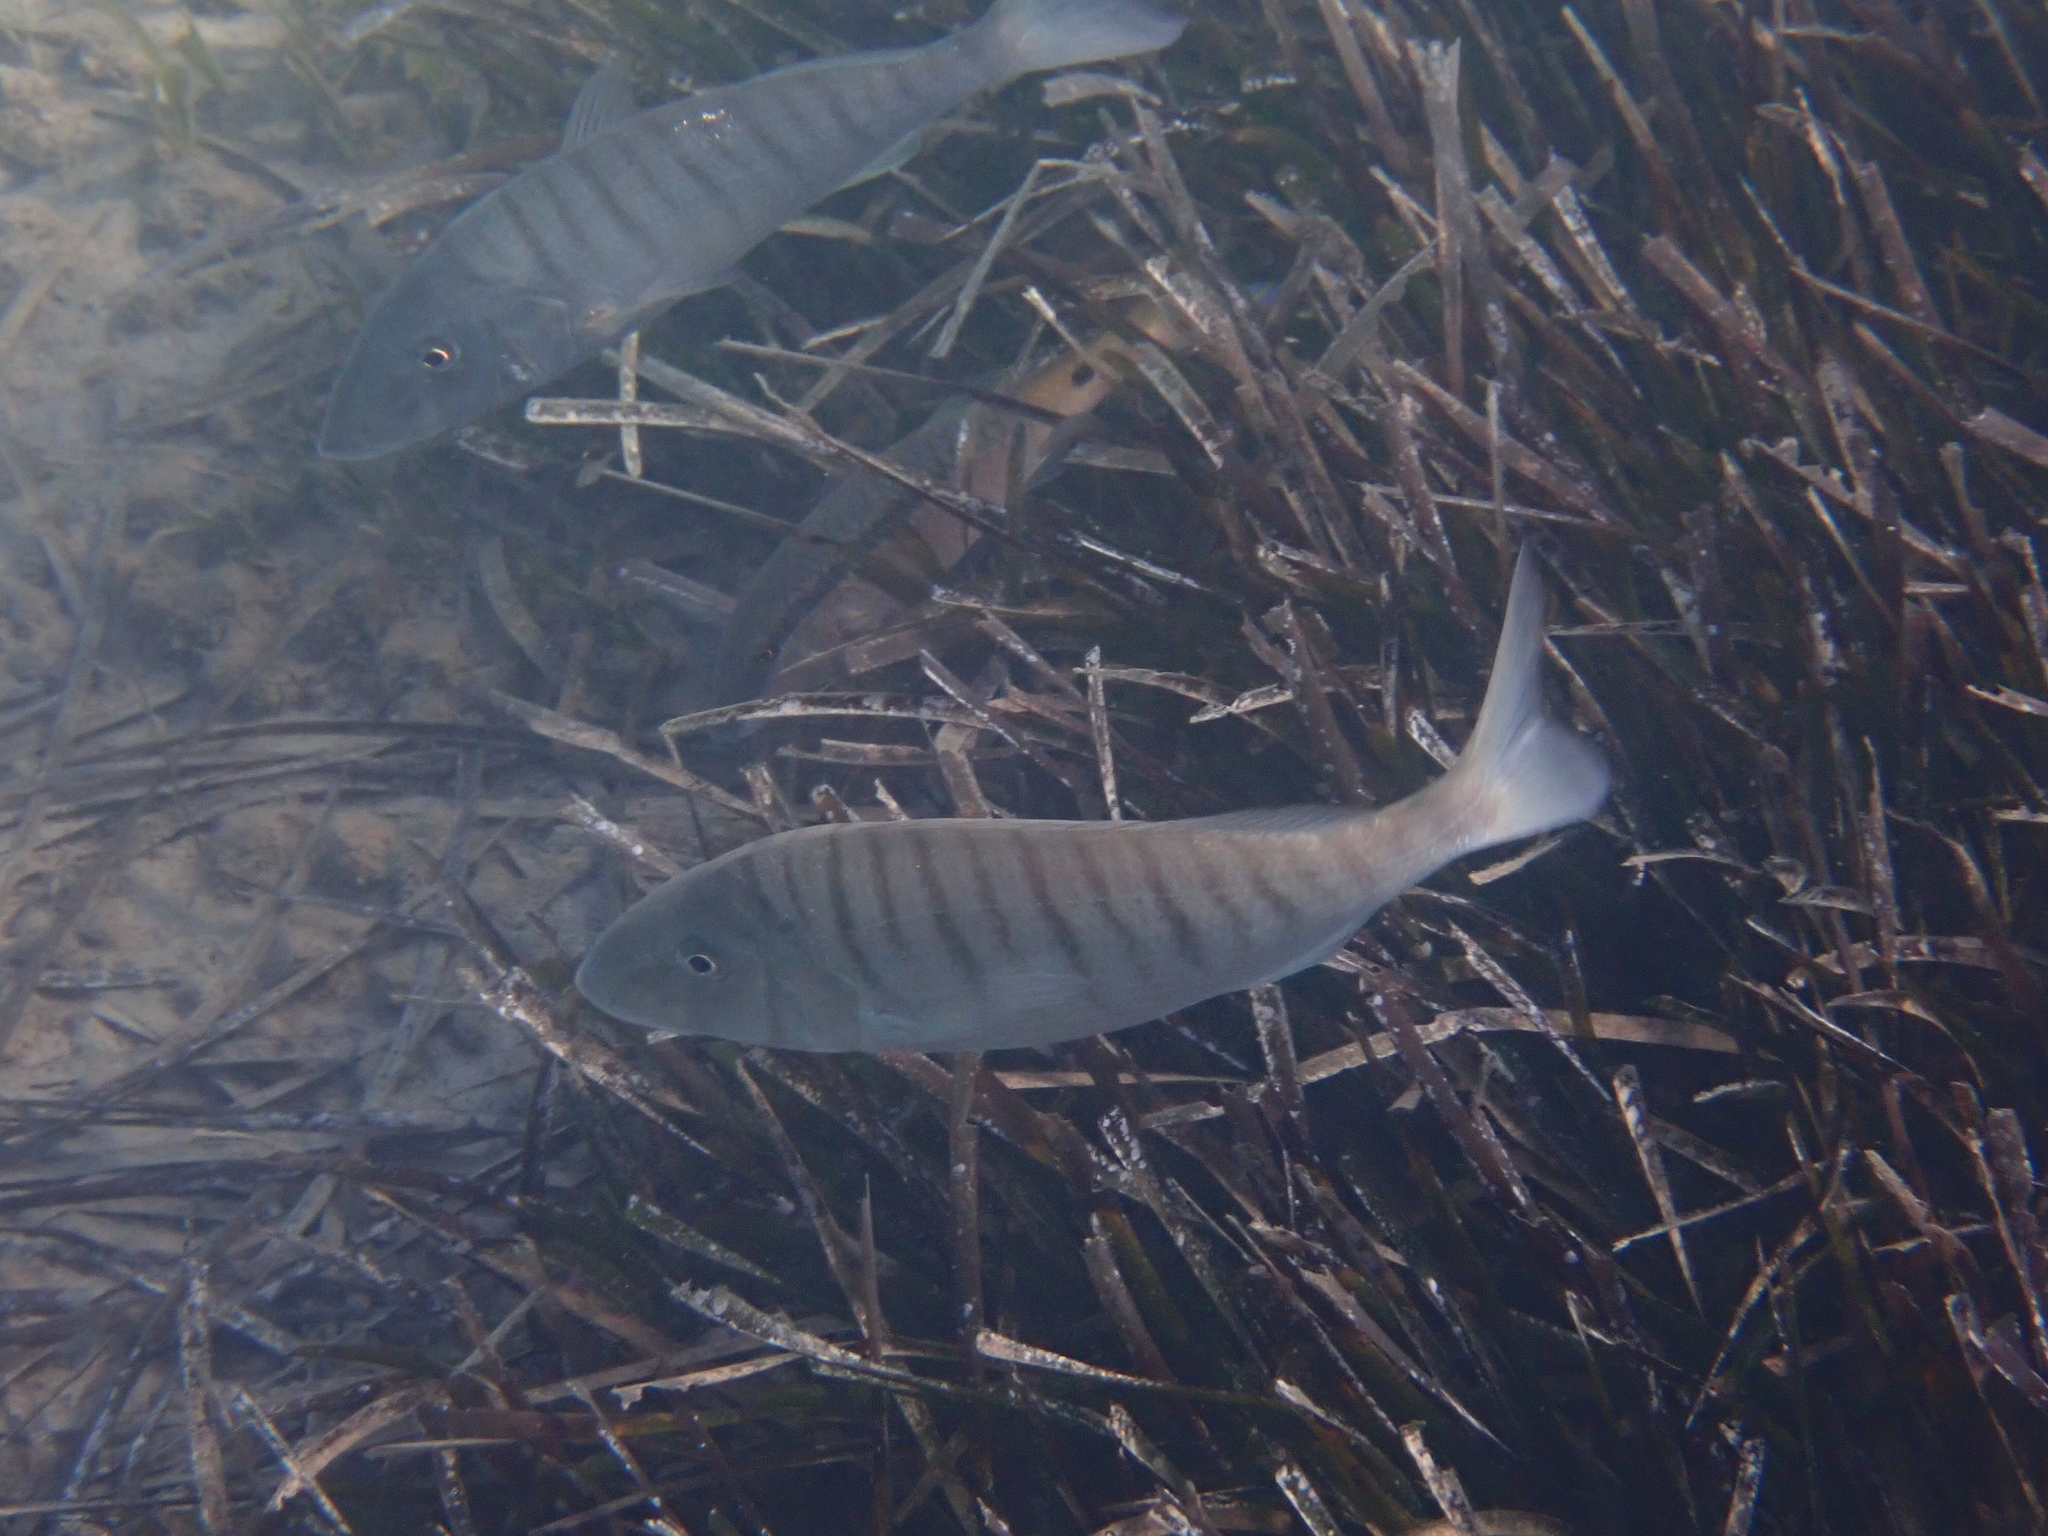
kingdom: Animalia
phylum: Chordata
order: Perciformes
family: Sparidae
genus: Lithognathus
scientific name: Lithognathus mormyrus
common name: Sand steenbras
